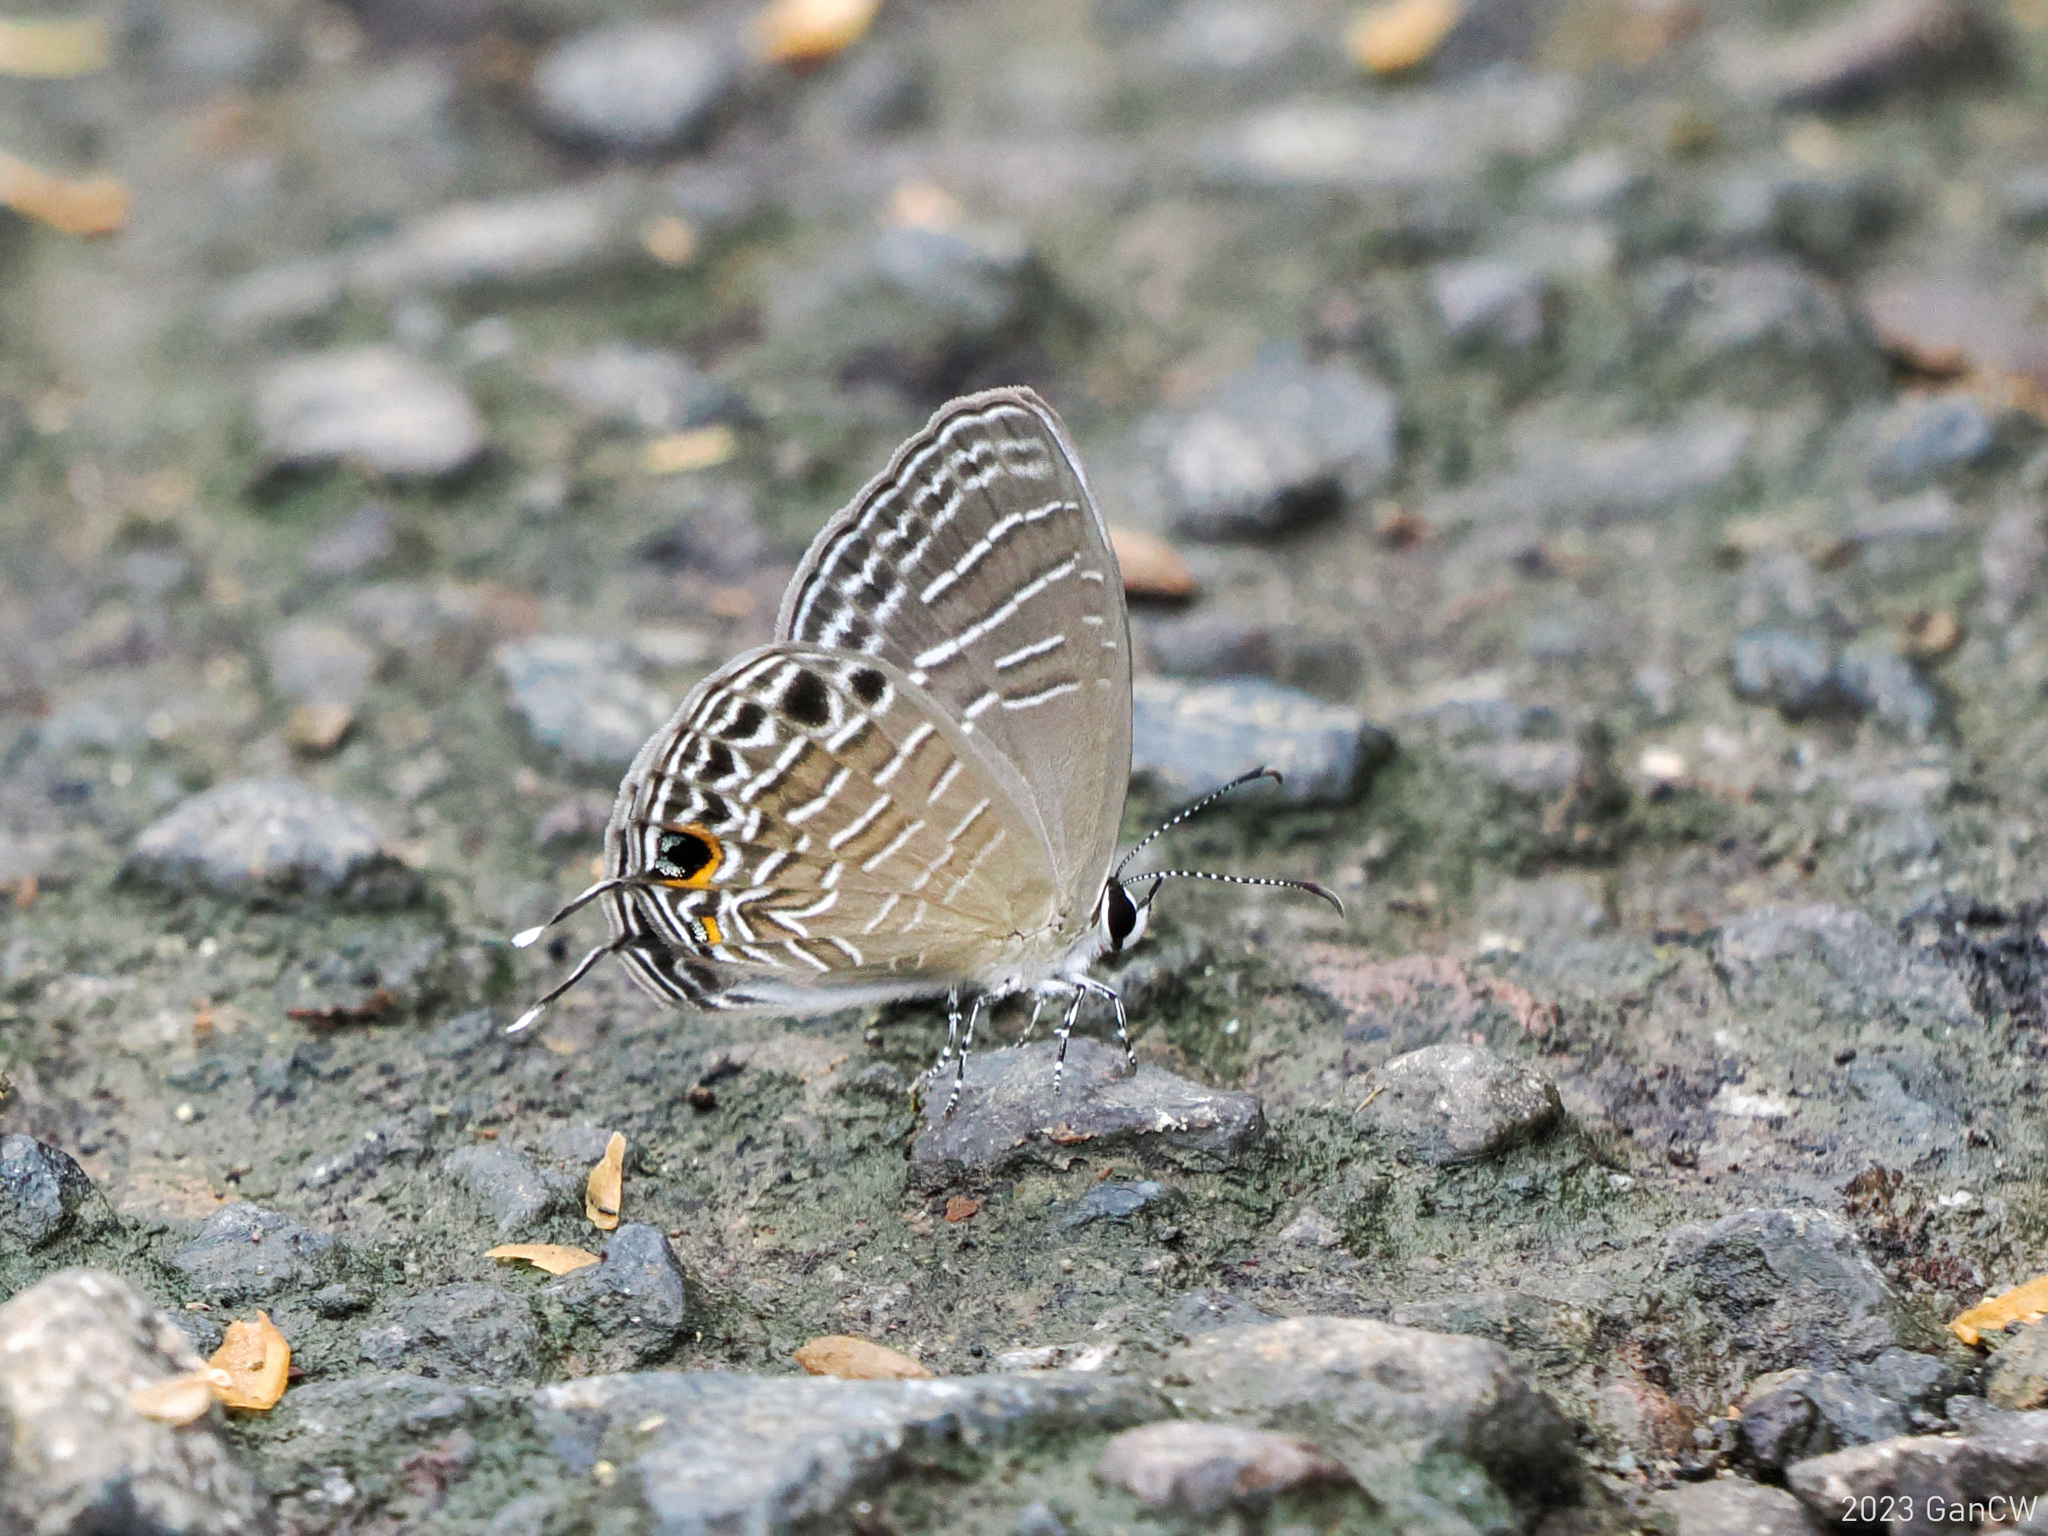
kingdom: Animalia
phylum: Arthropoda
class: Insecta
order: Lepidoptera
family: Lycaenidae
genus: Jamides
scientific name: Jamides fractilinea
